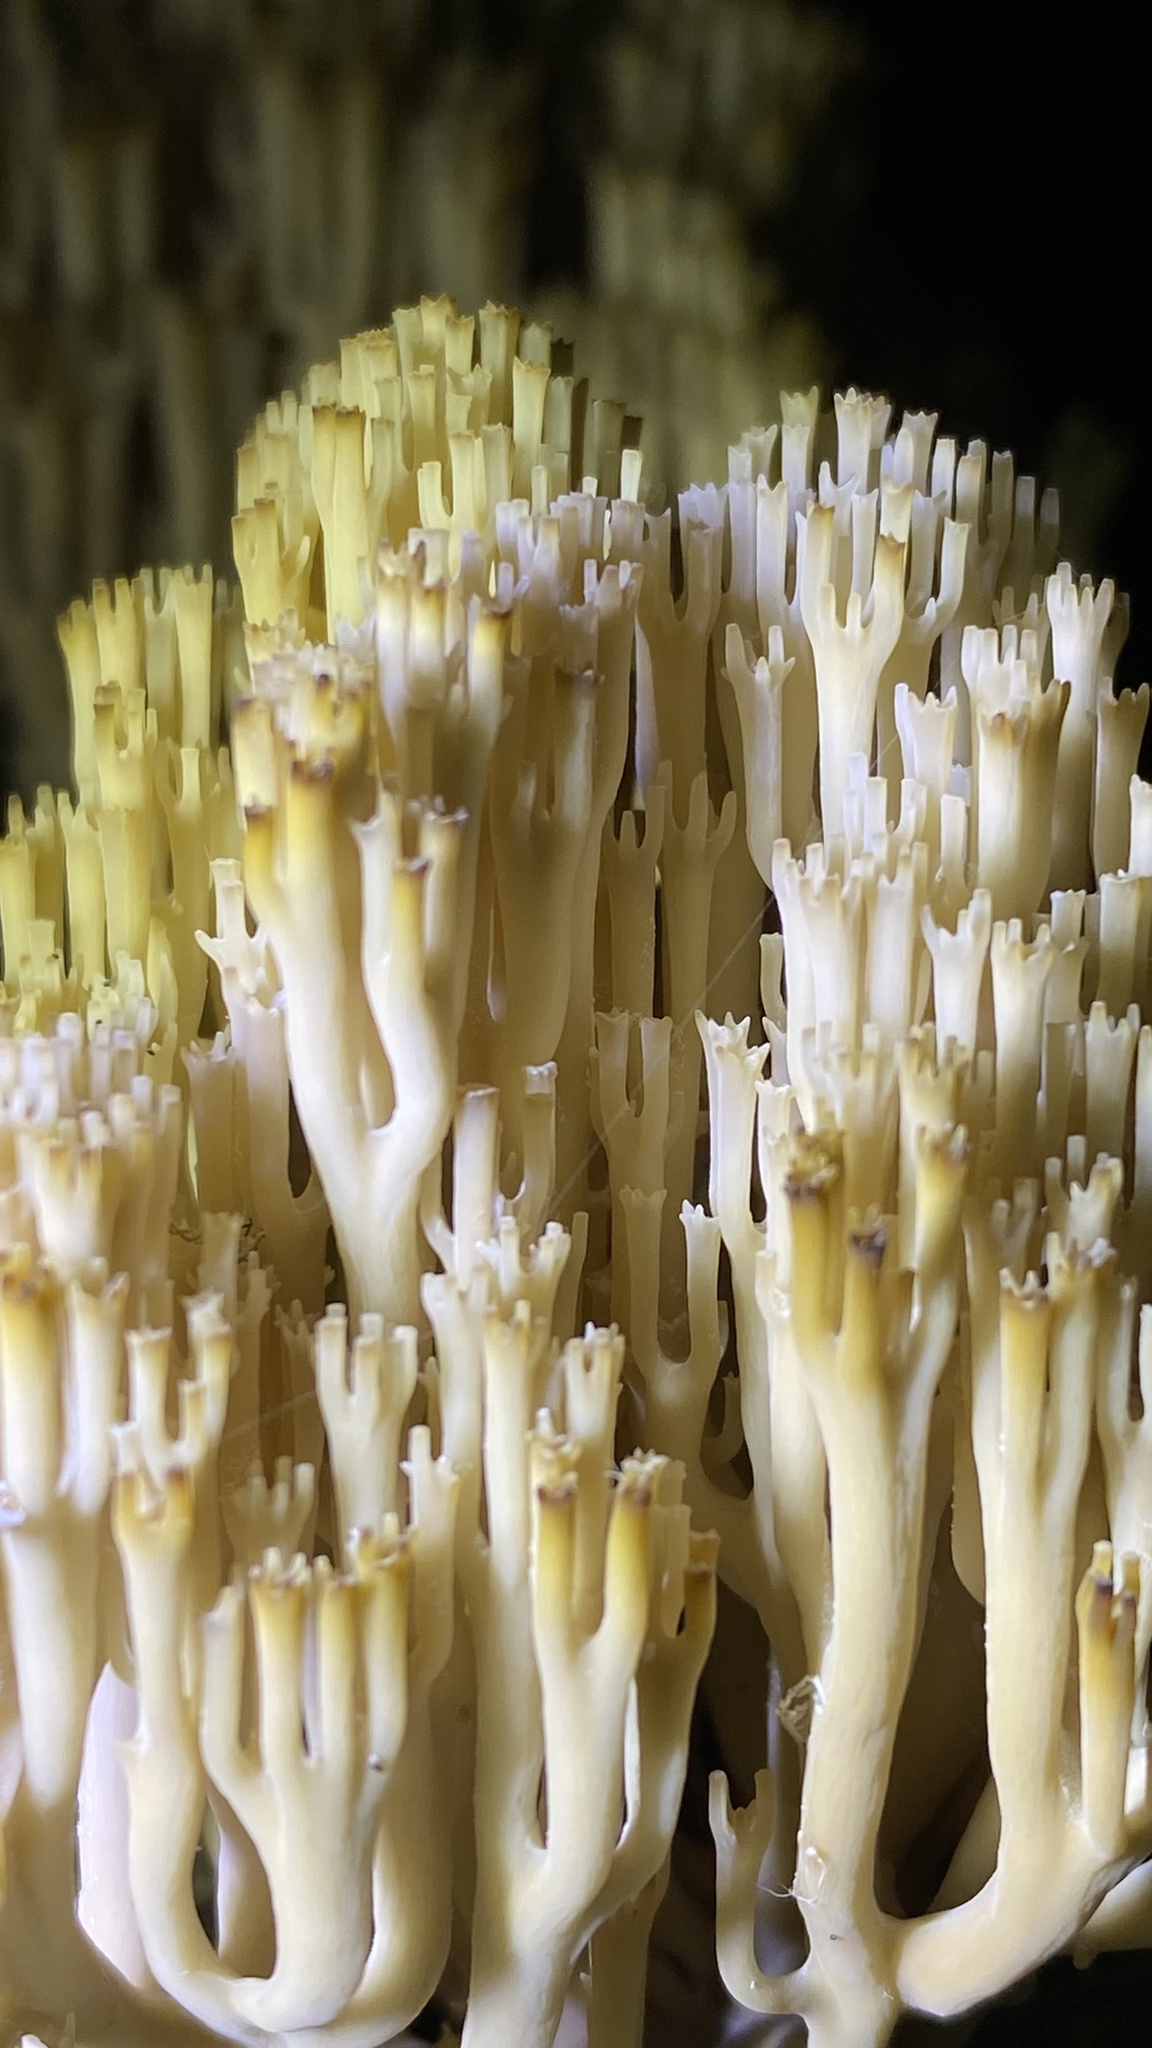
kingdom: Fungi
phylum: Basidiomycota
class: Agaricomycetes
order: Russulales
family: Auriscalpiaceae
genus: Artomyces
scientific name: Artomyces pyxidatus
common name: Crown-tipped coral fungus
